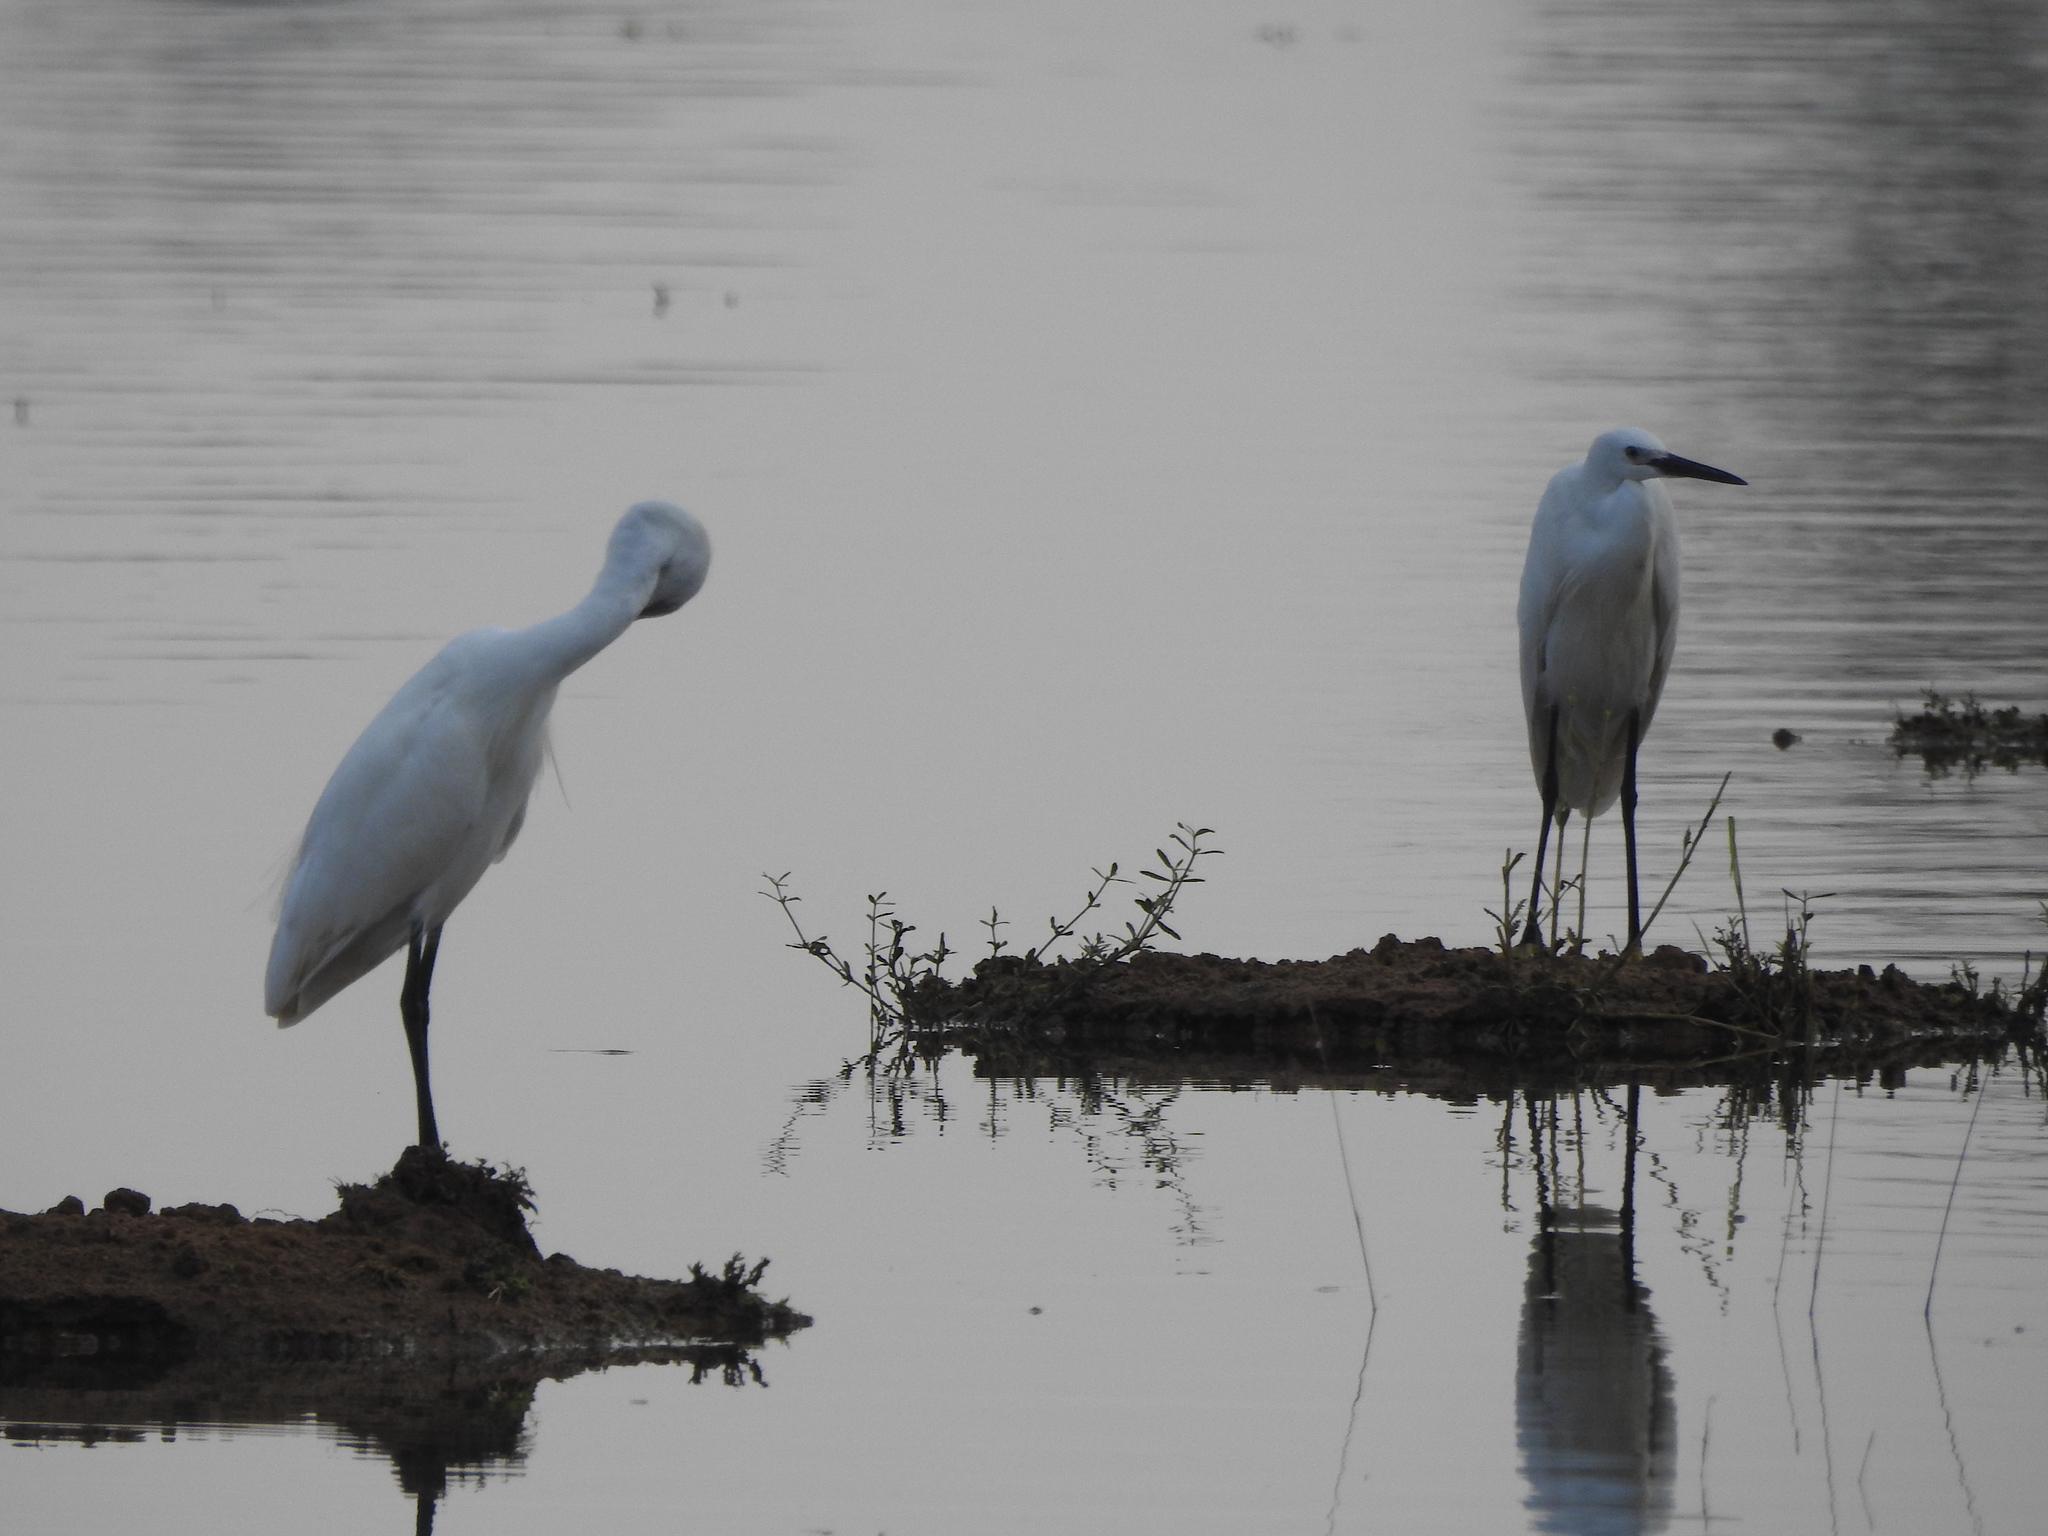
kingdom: Animalia
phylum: Chordata
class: Aves
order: Pelecaniformes
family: Ardeidae
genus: Egretta
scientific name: Egretta intermedia
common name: Intermediate egret
